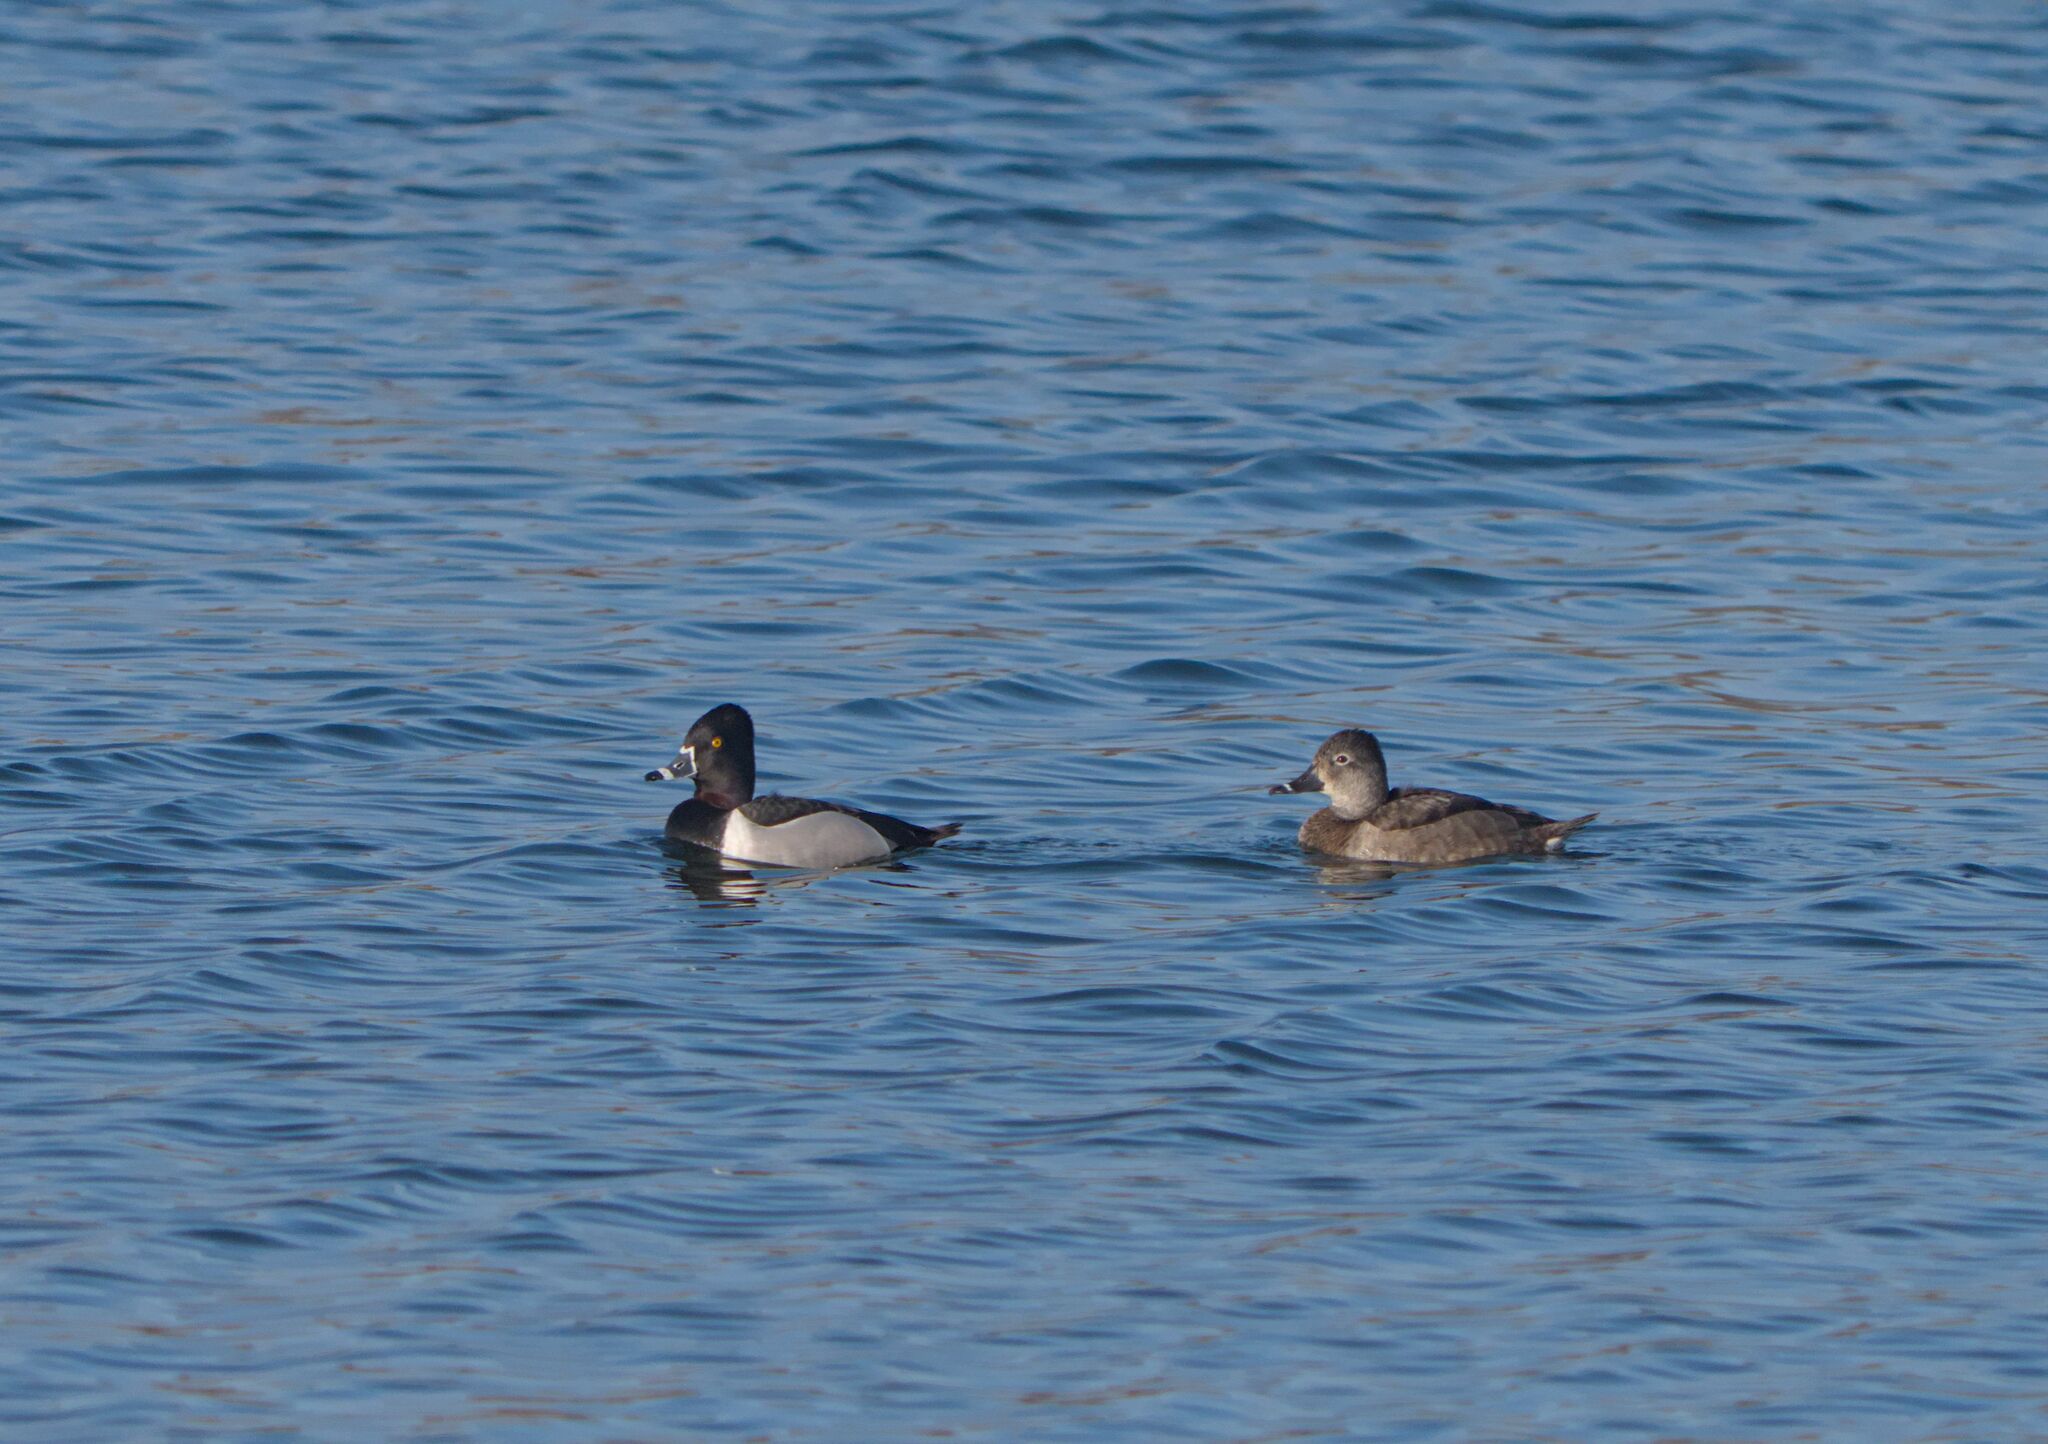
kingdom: Animalia
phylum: Chordata
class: Aves
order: Anseriformes
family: Anatidae
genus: Aythya
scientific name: Aythya collaris
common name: Ring-necked duck
